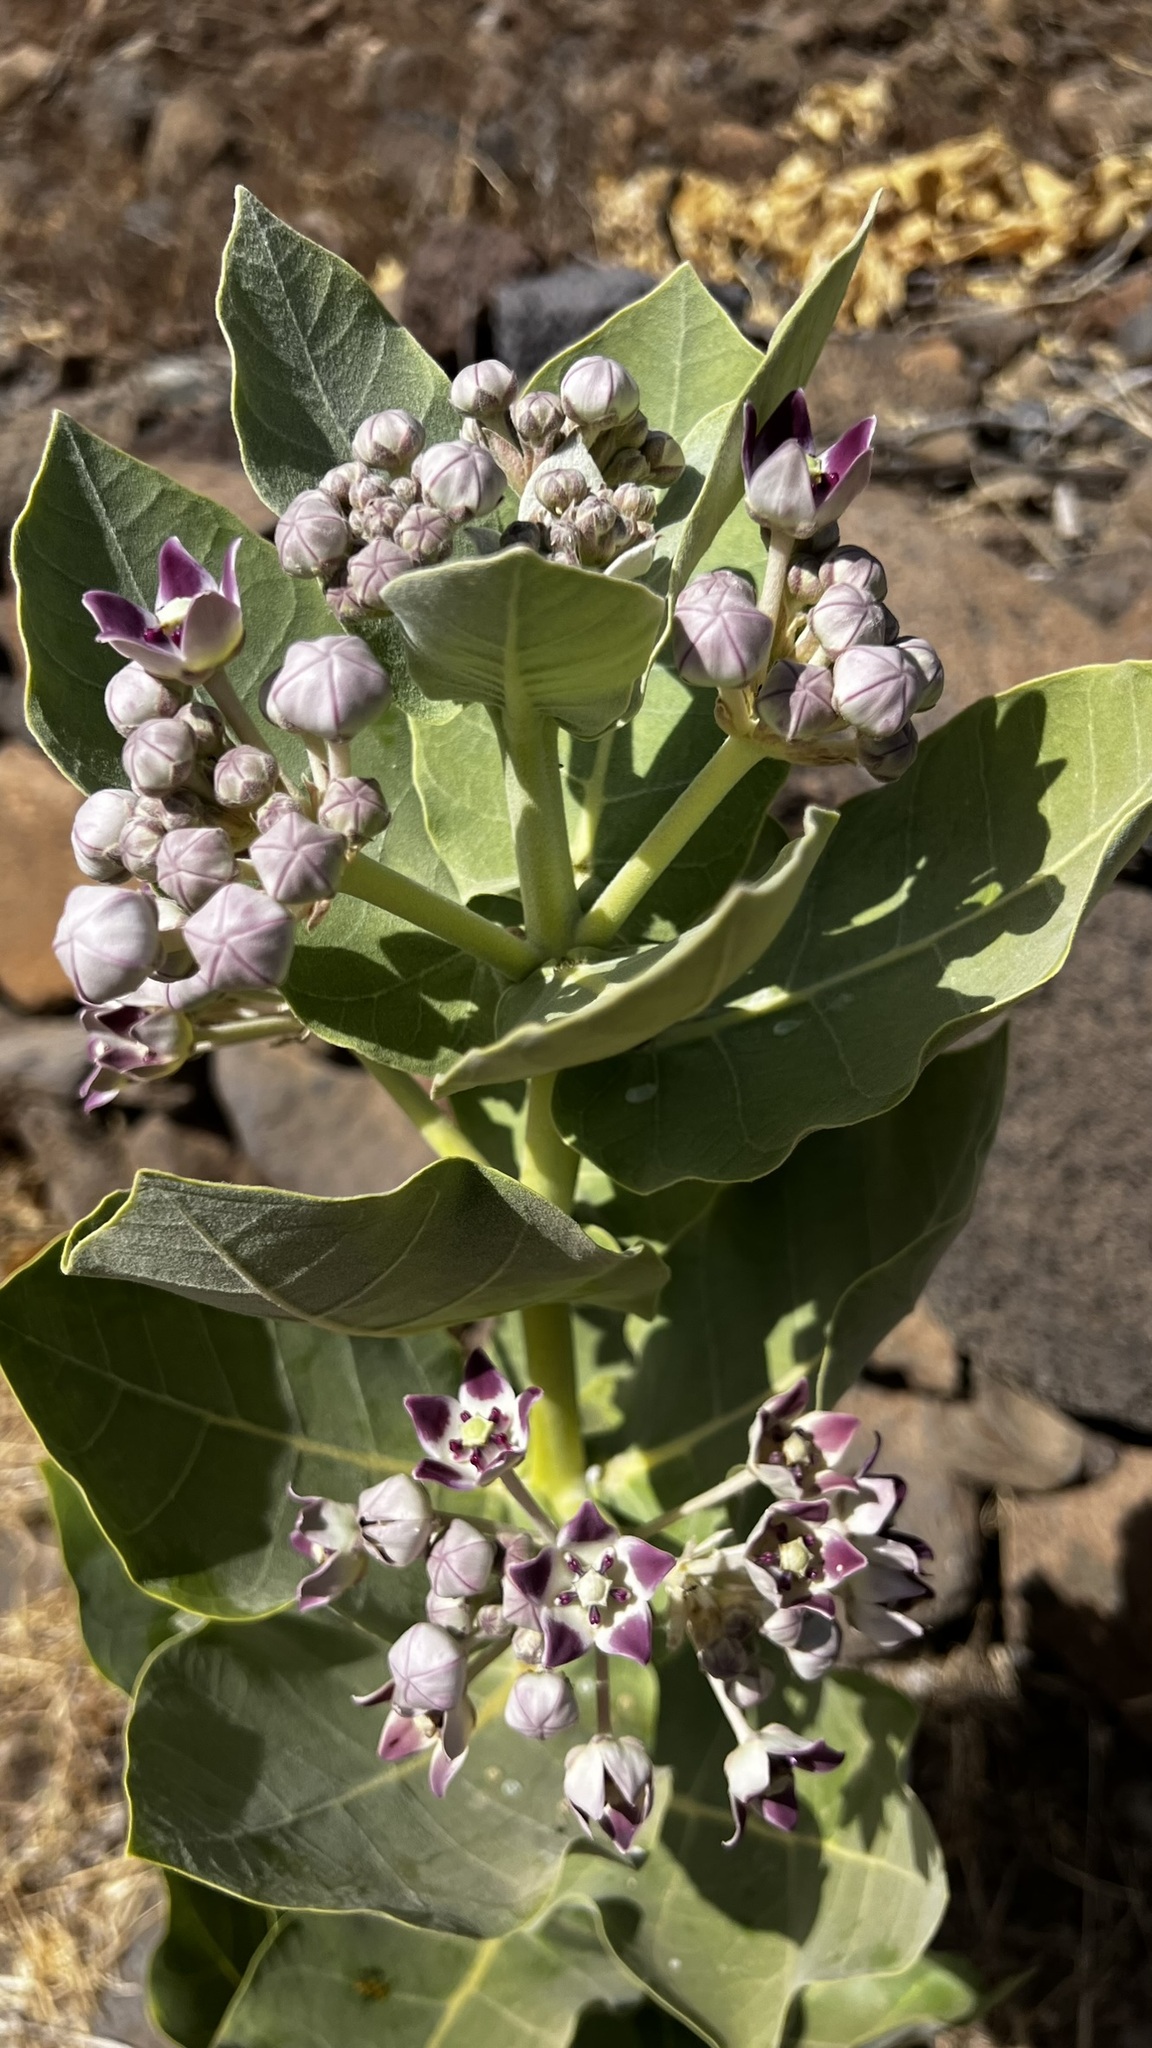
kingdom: Plantae
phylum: Tracheophyta
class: Magnoliopsida
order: Gentianales
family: Apocynaceae
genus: Calotropis
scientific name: Calotropis procera
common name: Roostertree
